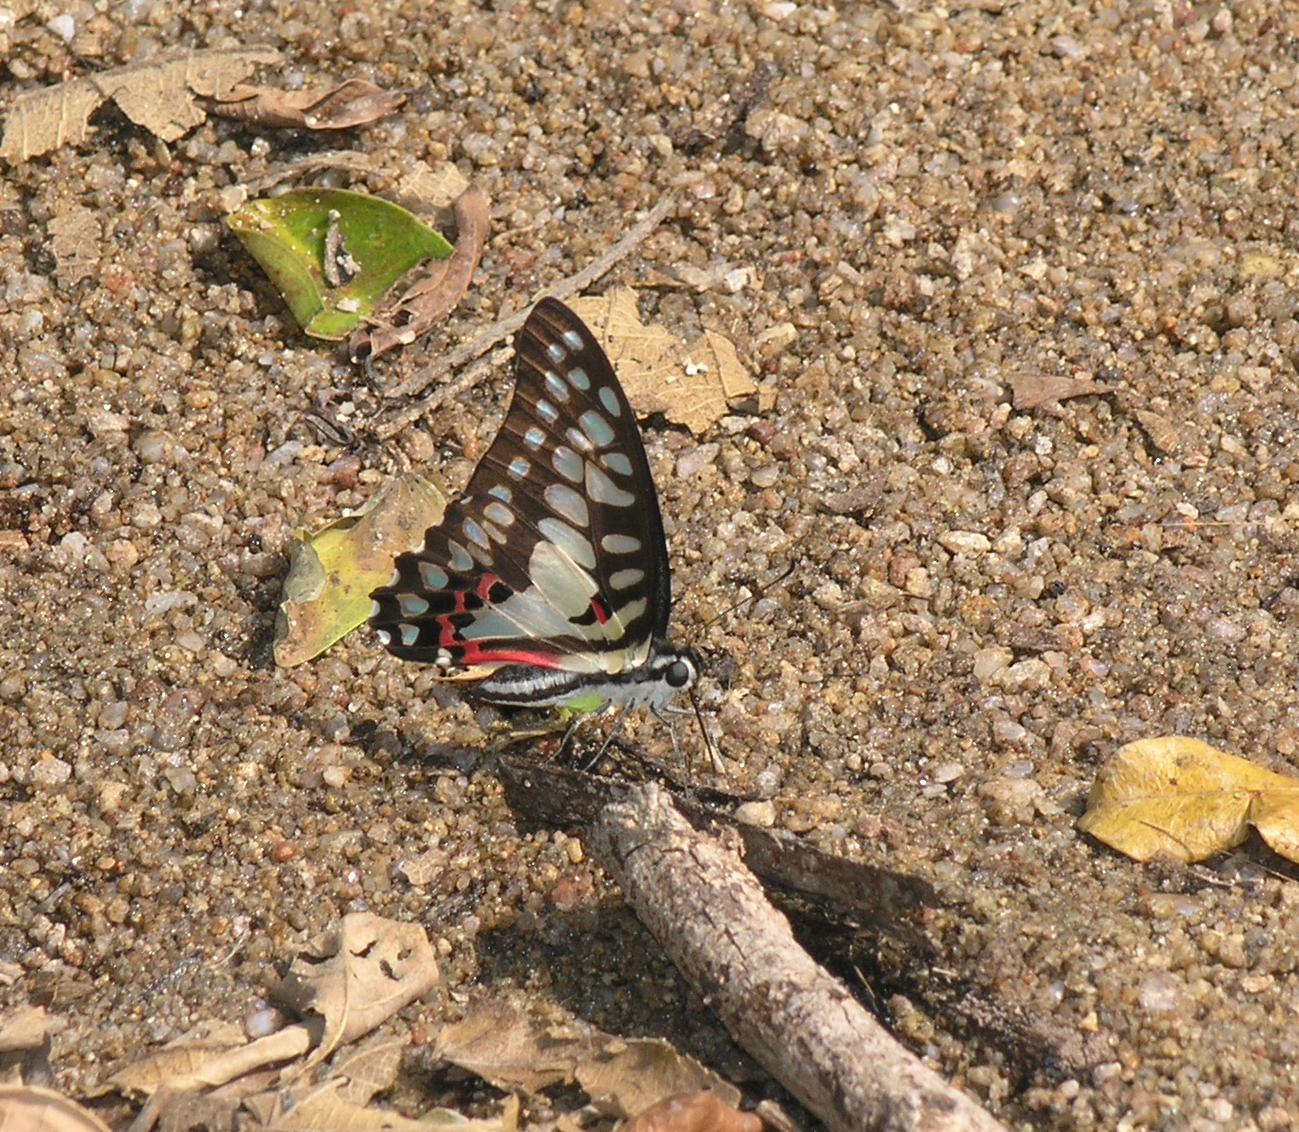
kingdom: Animalia
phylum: Arthropoda
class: Insecta
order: Lepidoptera
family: Papilionidae
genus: Graphium
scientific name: Graphium doson
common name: Common jay
